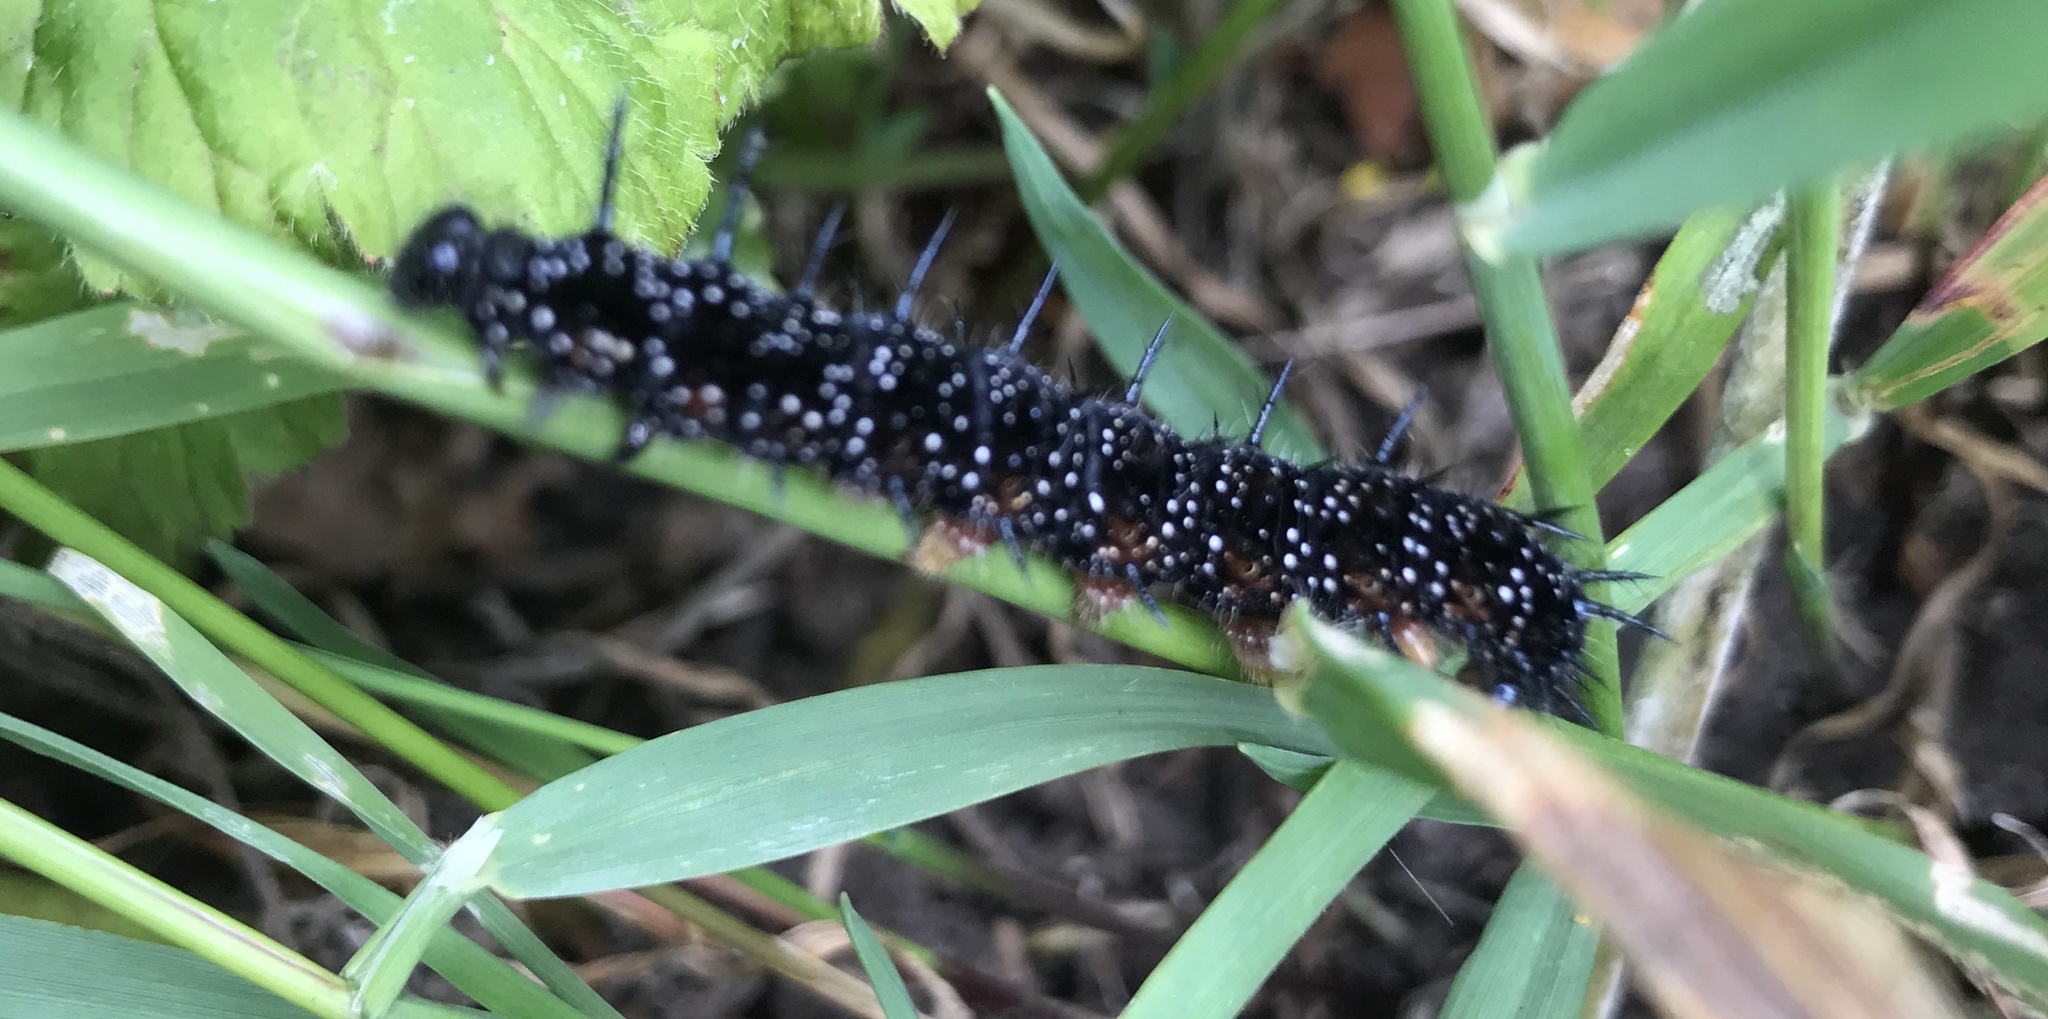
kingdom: Animalia
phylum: Arthropoda
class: Insecta
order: Lepidoptera
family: Nymphalidae
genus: Aglais
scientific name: Aglais io
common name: Peacock
